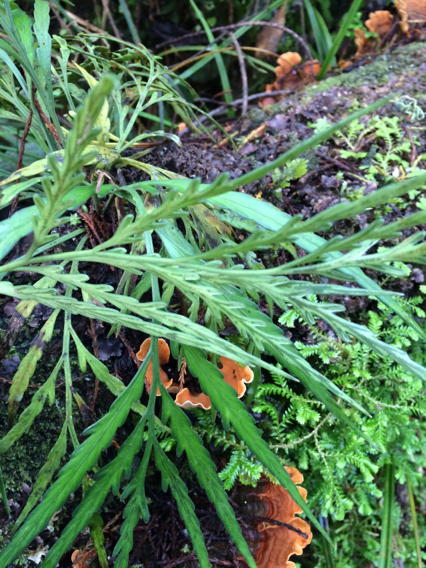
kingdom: Plantae
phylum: Tracheophyta
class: Polypodiopsida
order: Polypodiales
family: Aspleniaceae
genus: Asplenium
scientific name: Asplenium flaccidum
